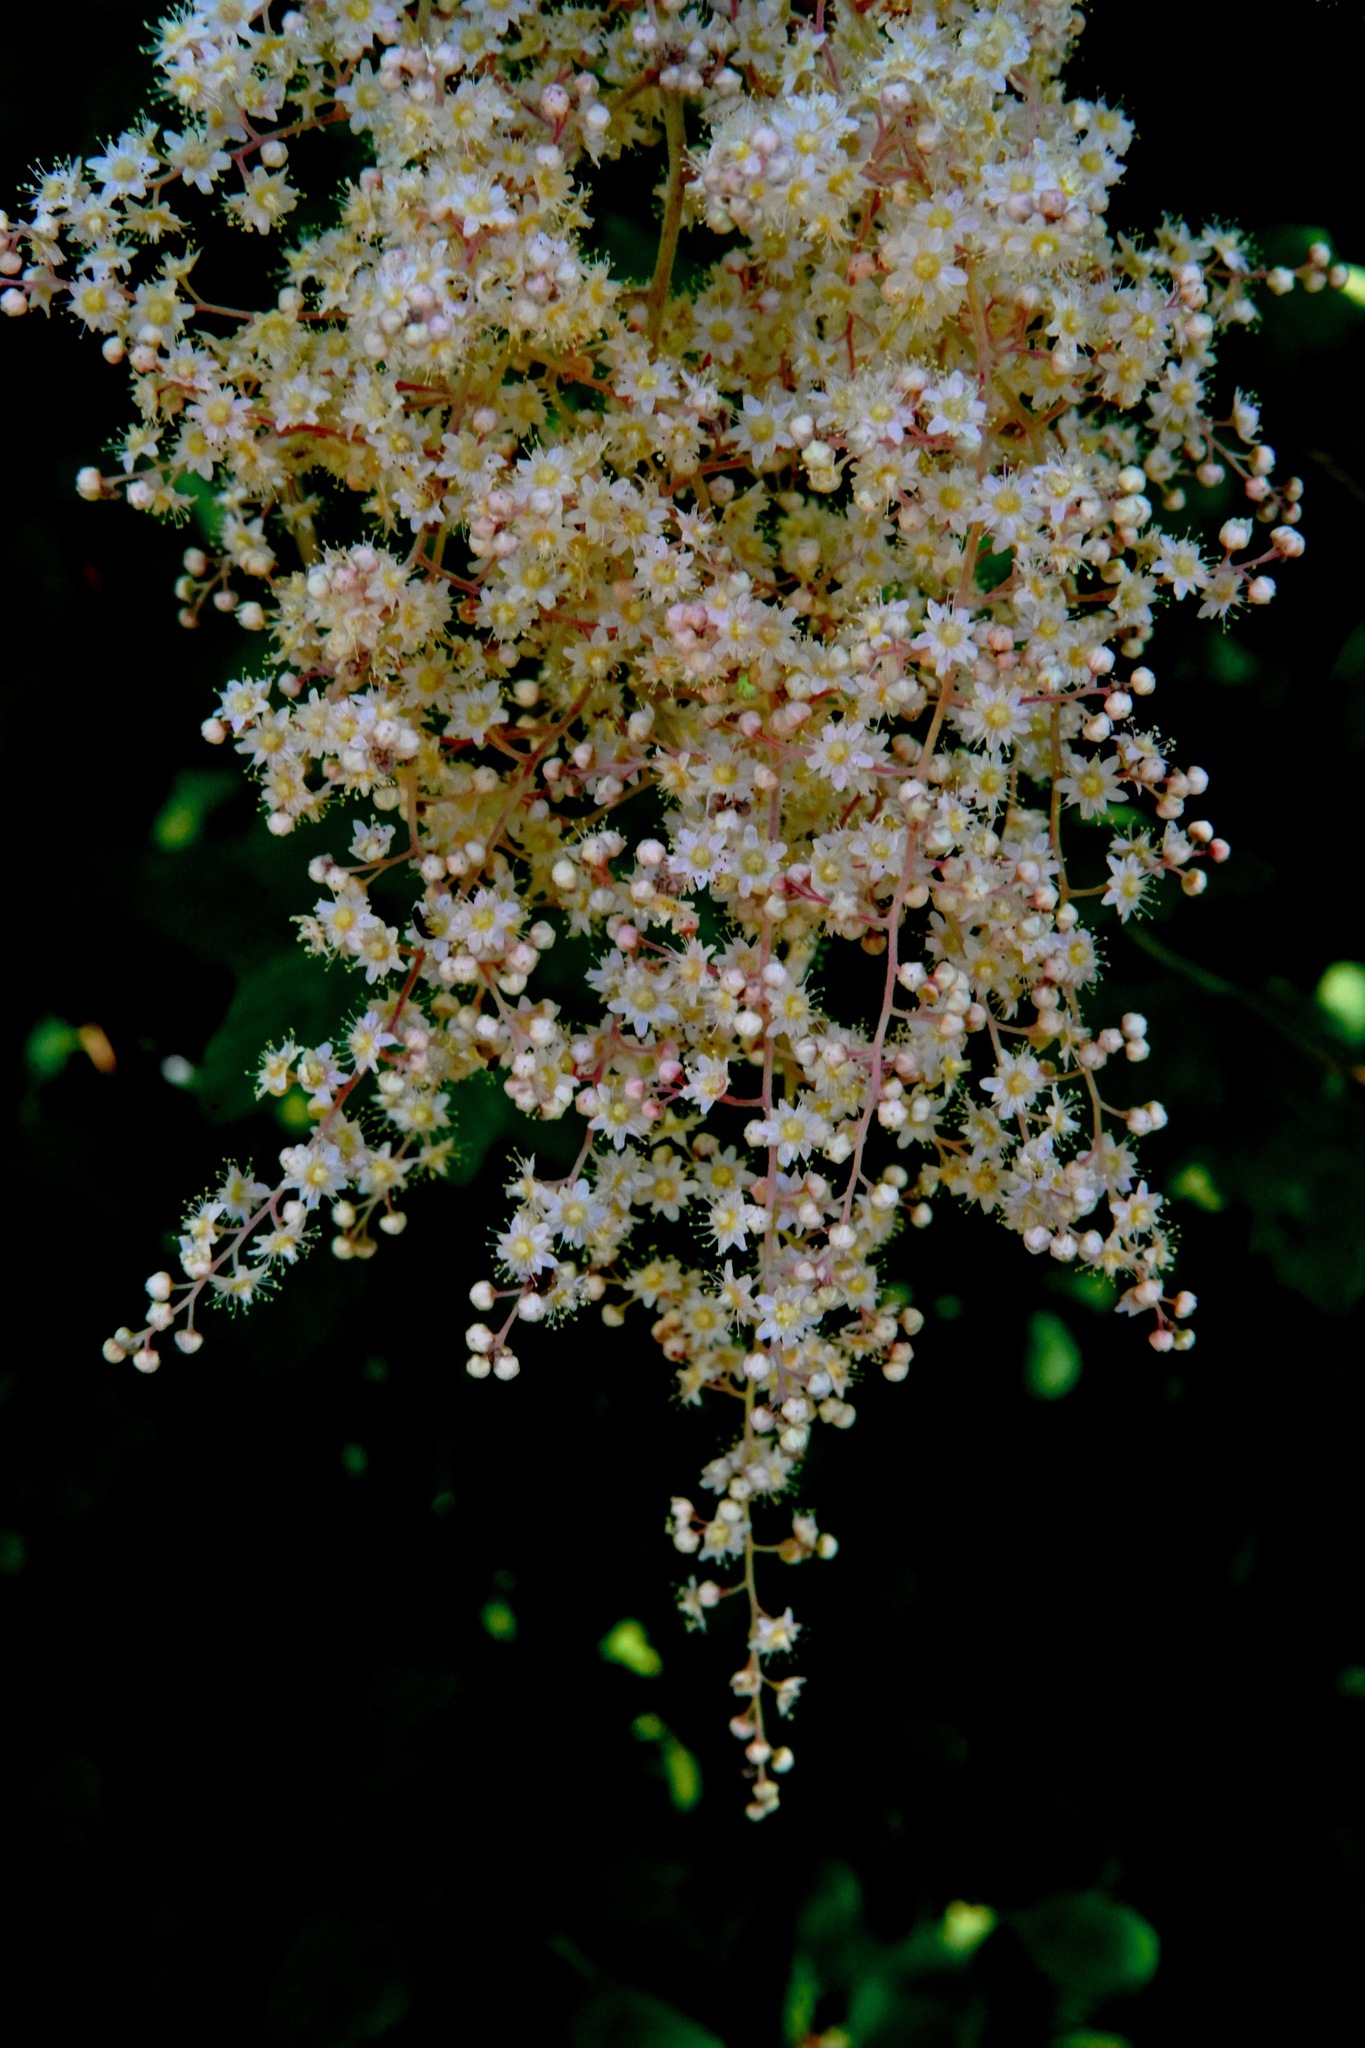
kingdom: Plantae
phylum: Tracheophyta
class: Magnoliopsida
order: Rosales
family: Rosaceae
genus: Holodiscus
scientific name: Holodiscus discolor
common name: Oceanspray
